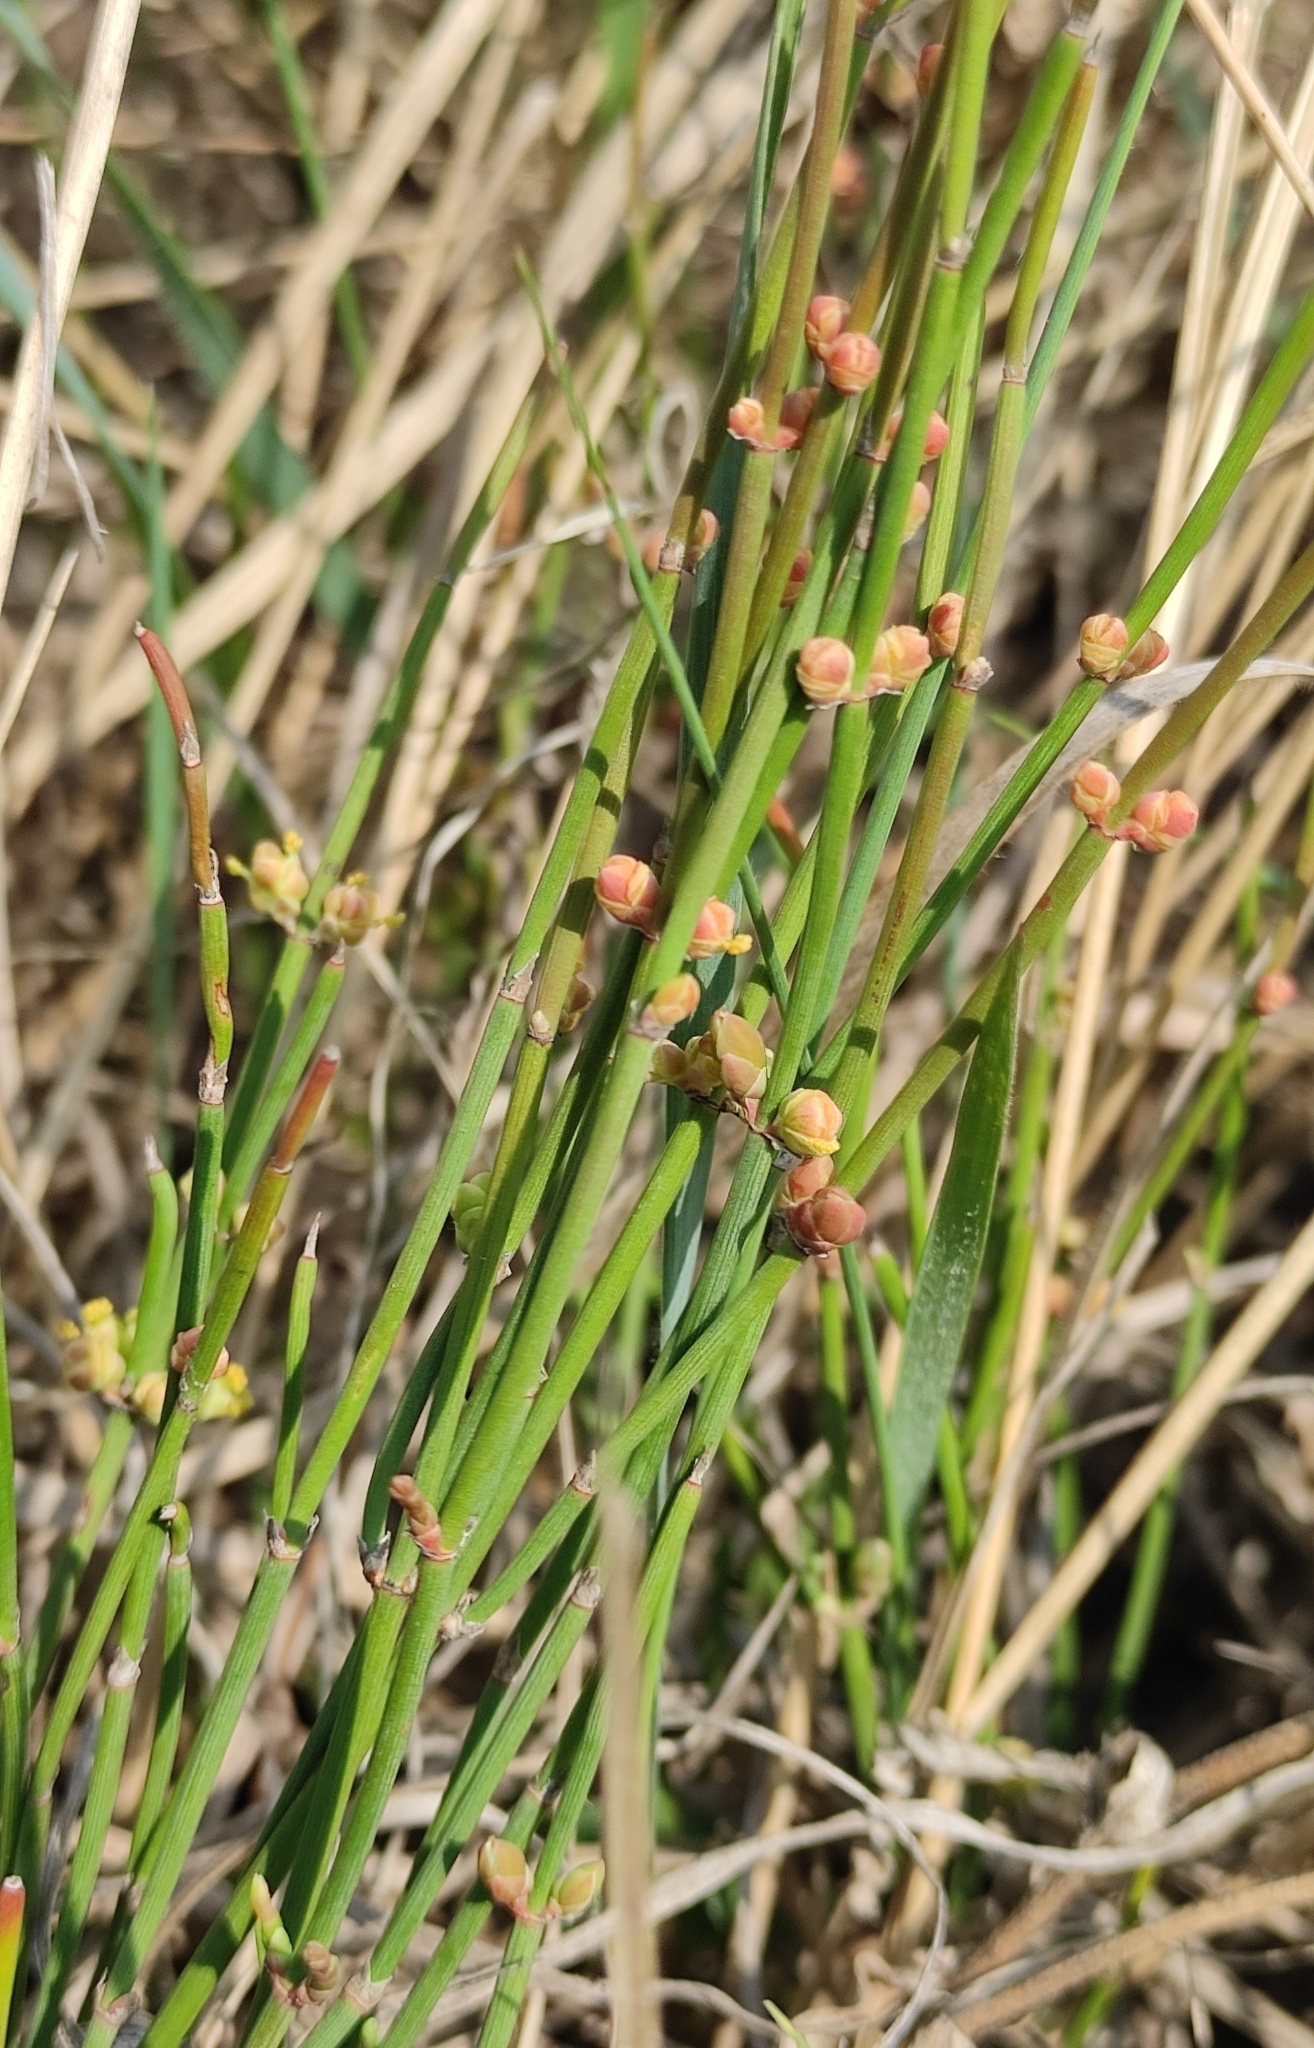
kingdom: Plantae
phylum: Tracheophyta
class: Gnetopsida
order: Ephedrales
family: Ephedraceae
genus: Ephedra
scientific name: Ephedra monosperma
